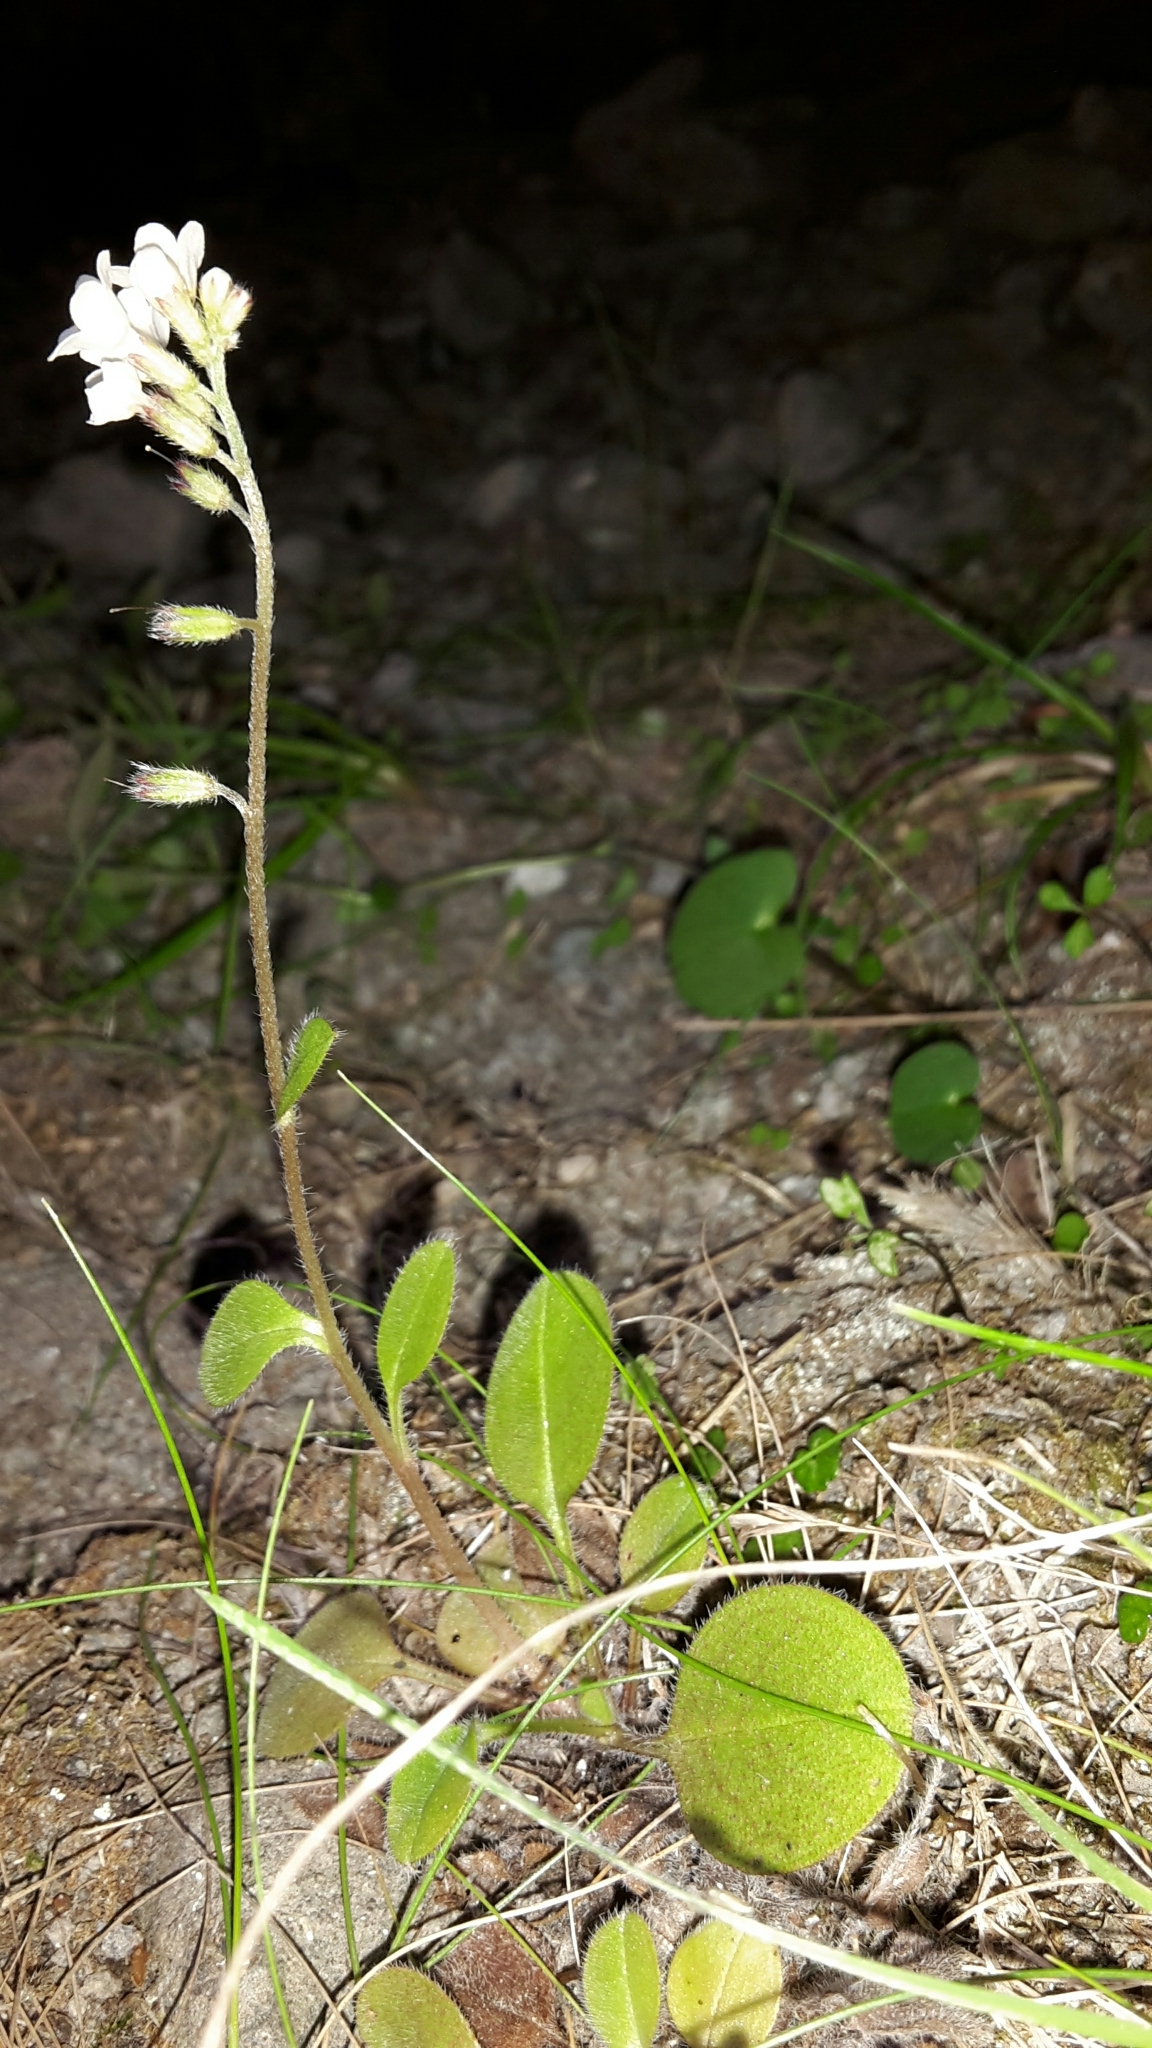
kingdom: Plantae
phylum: Tracheophyta
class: Magnoliopsida
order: Boraginales
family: Boraginaceae
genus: Myosotis
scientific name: Myosotis forsteri
